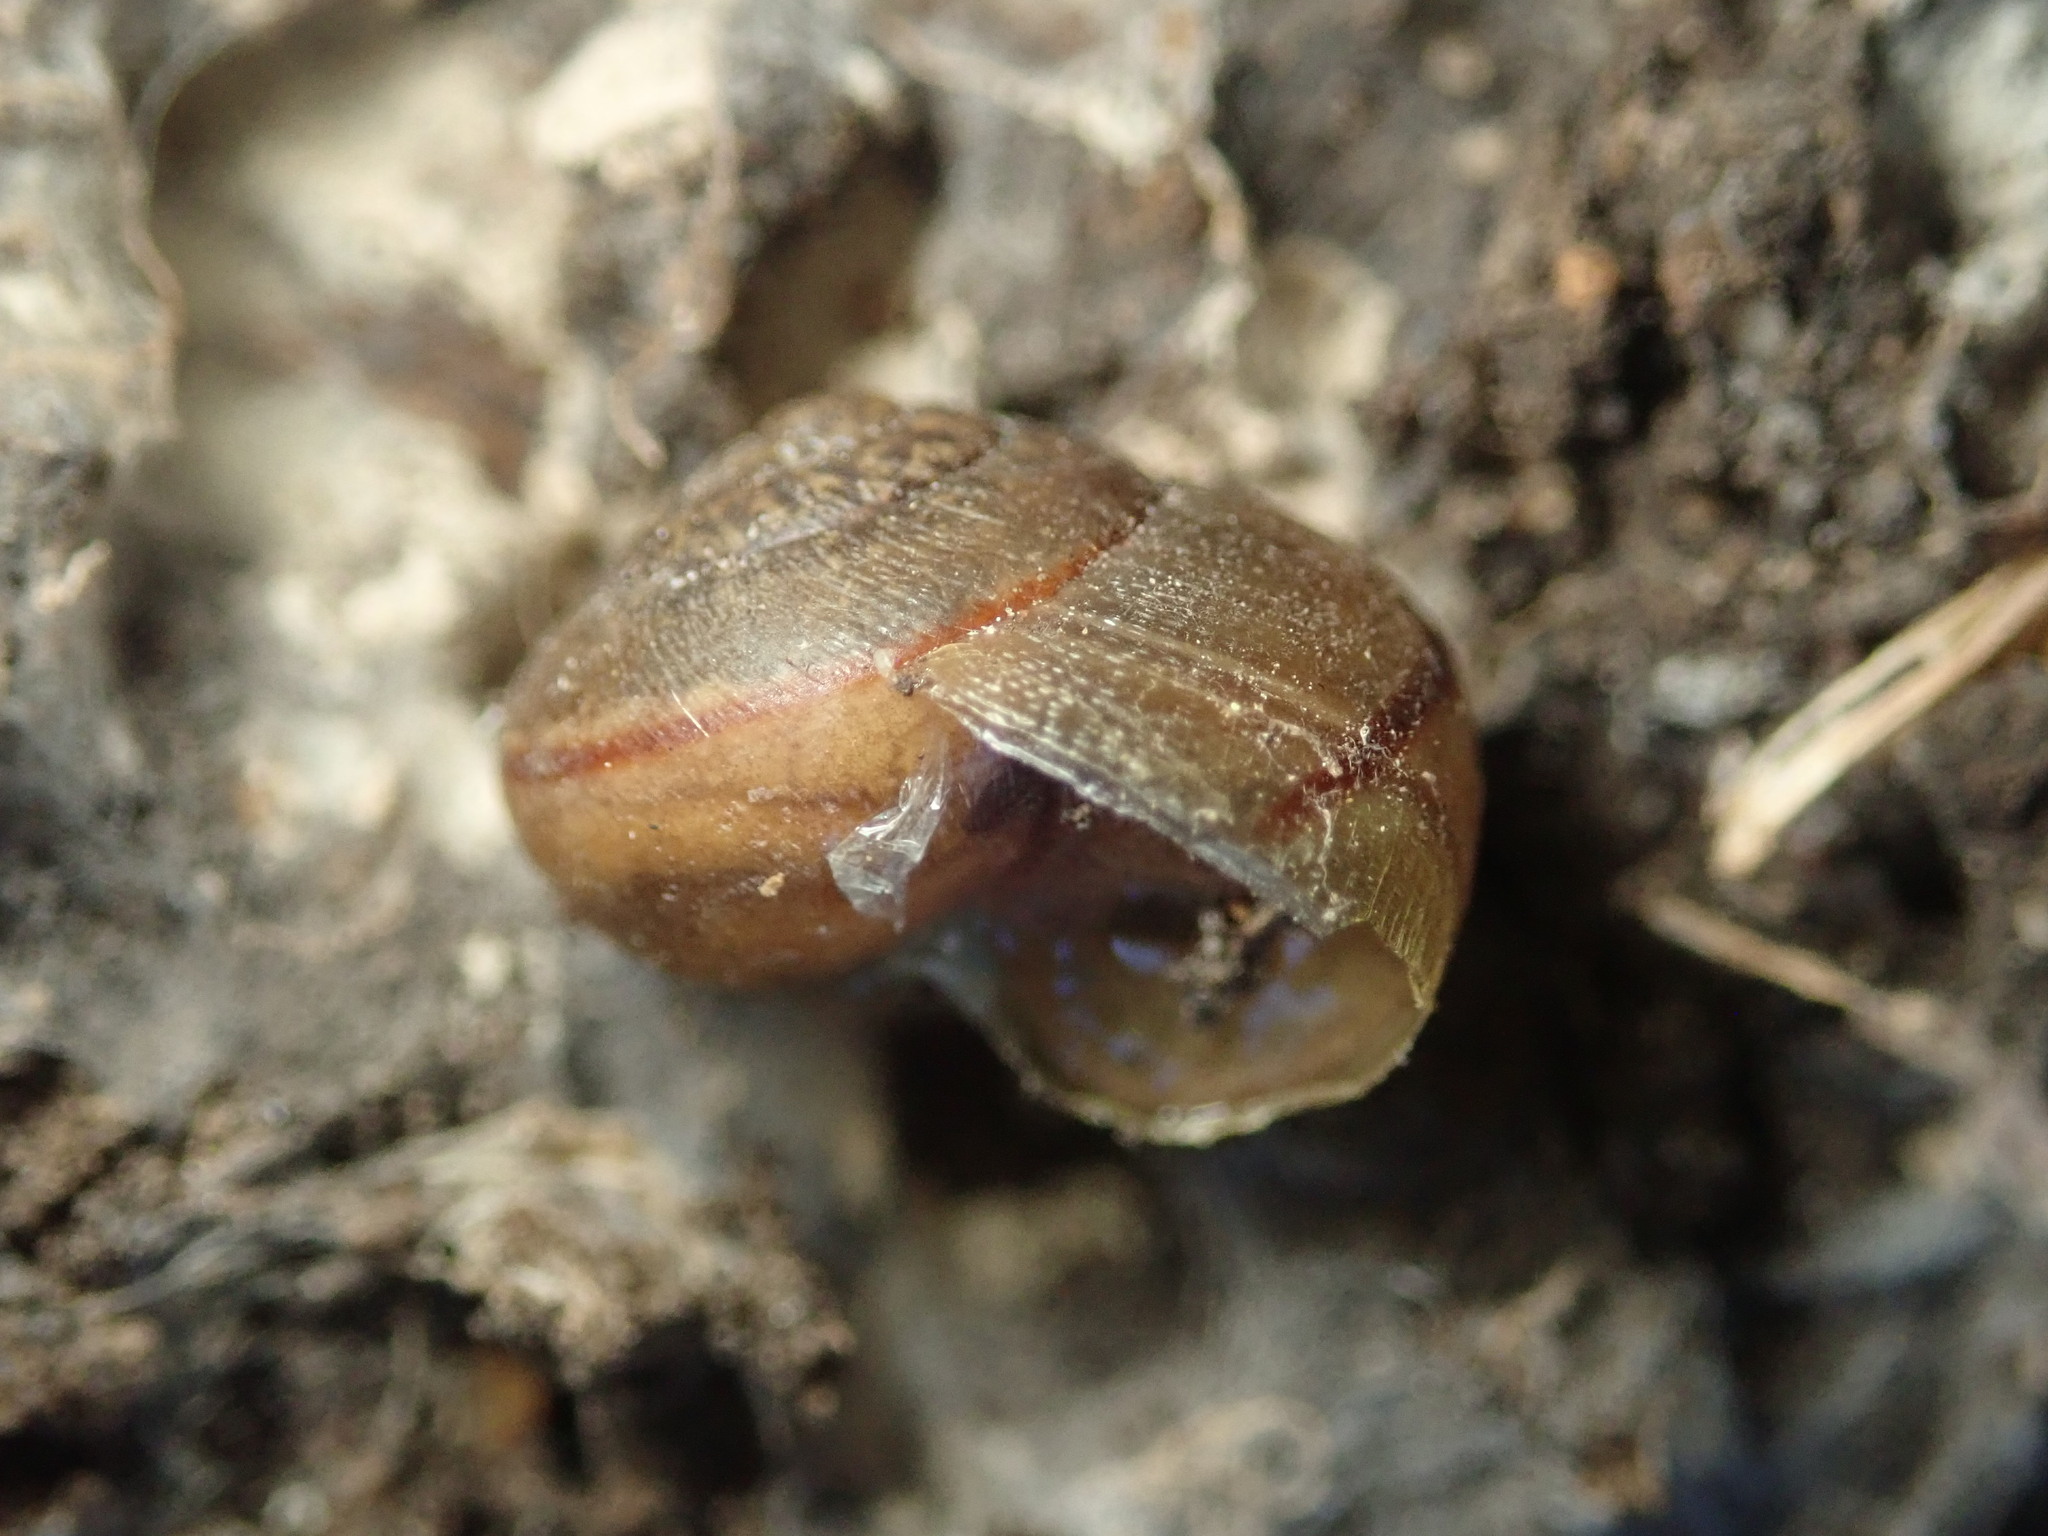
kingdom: Animalia
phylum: Mollusca
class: Gastropoda
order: Stylommatophora
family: Xanthonychidae
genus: Helminthoglypta
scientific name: Helminthoglypta nickliniana
